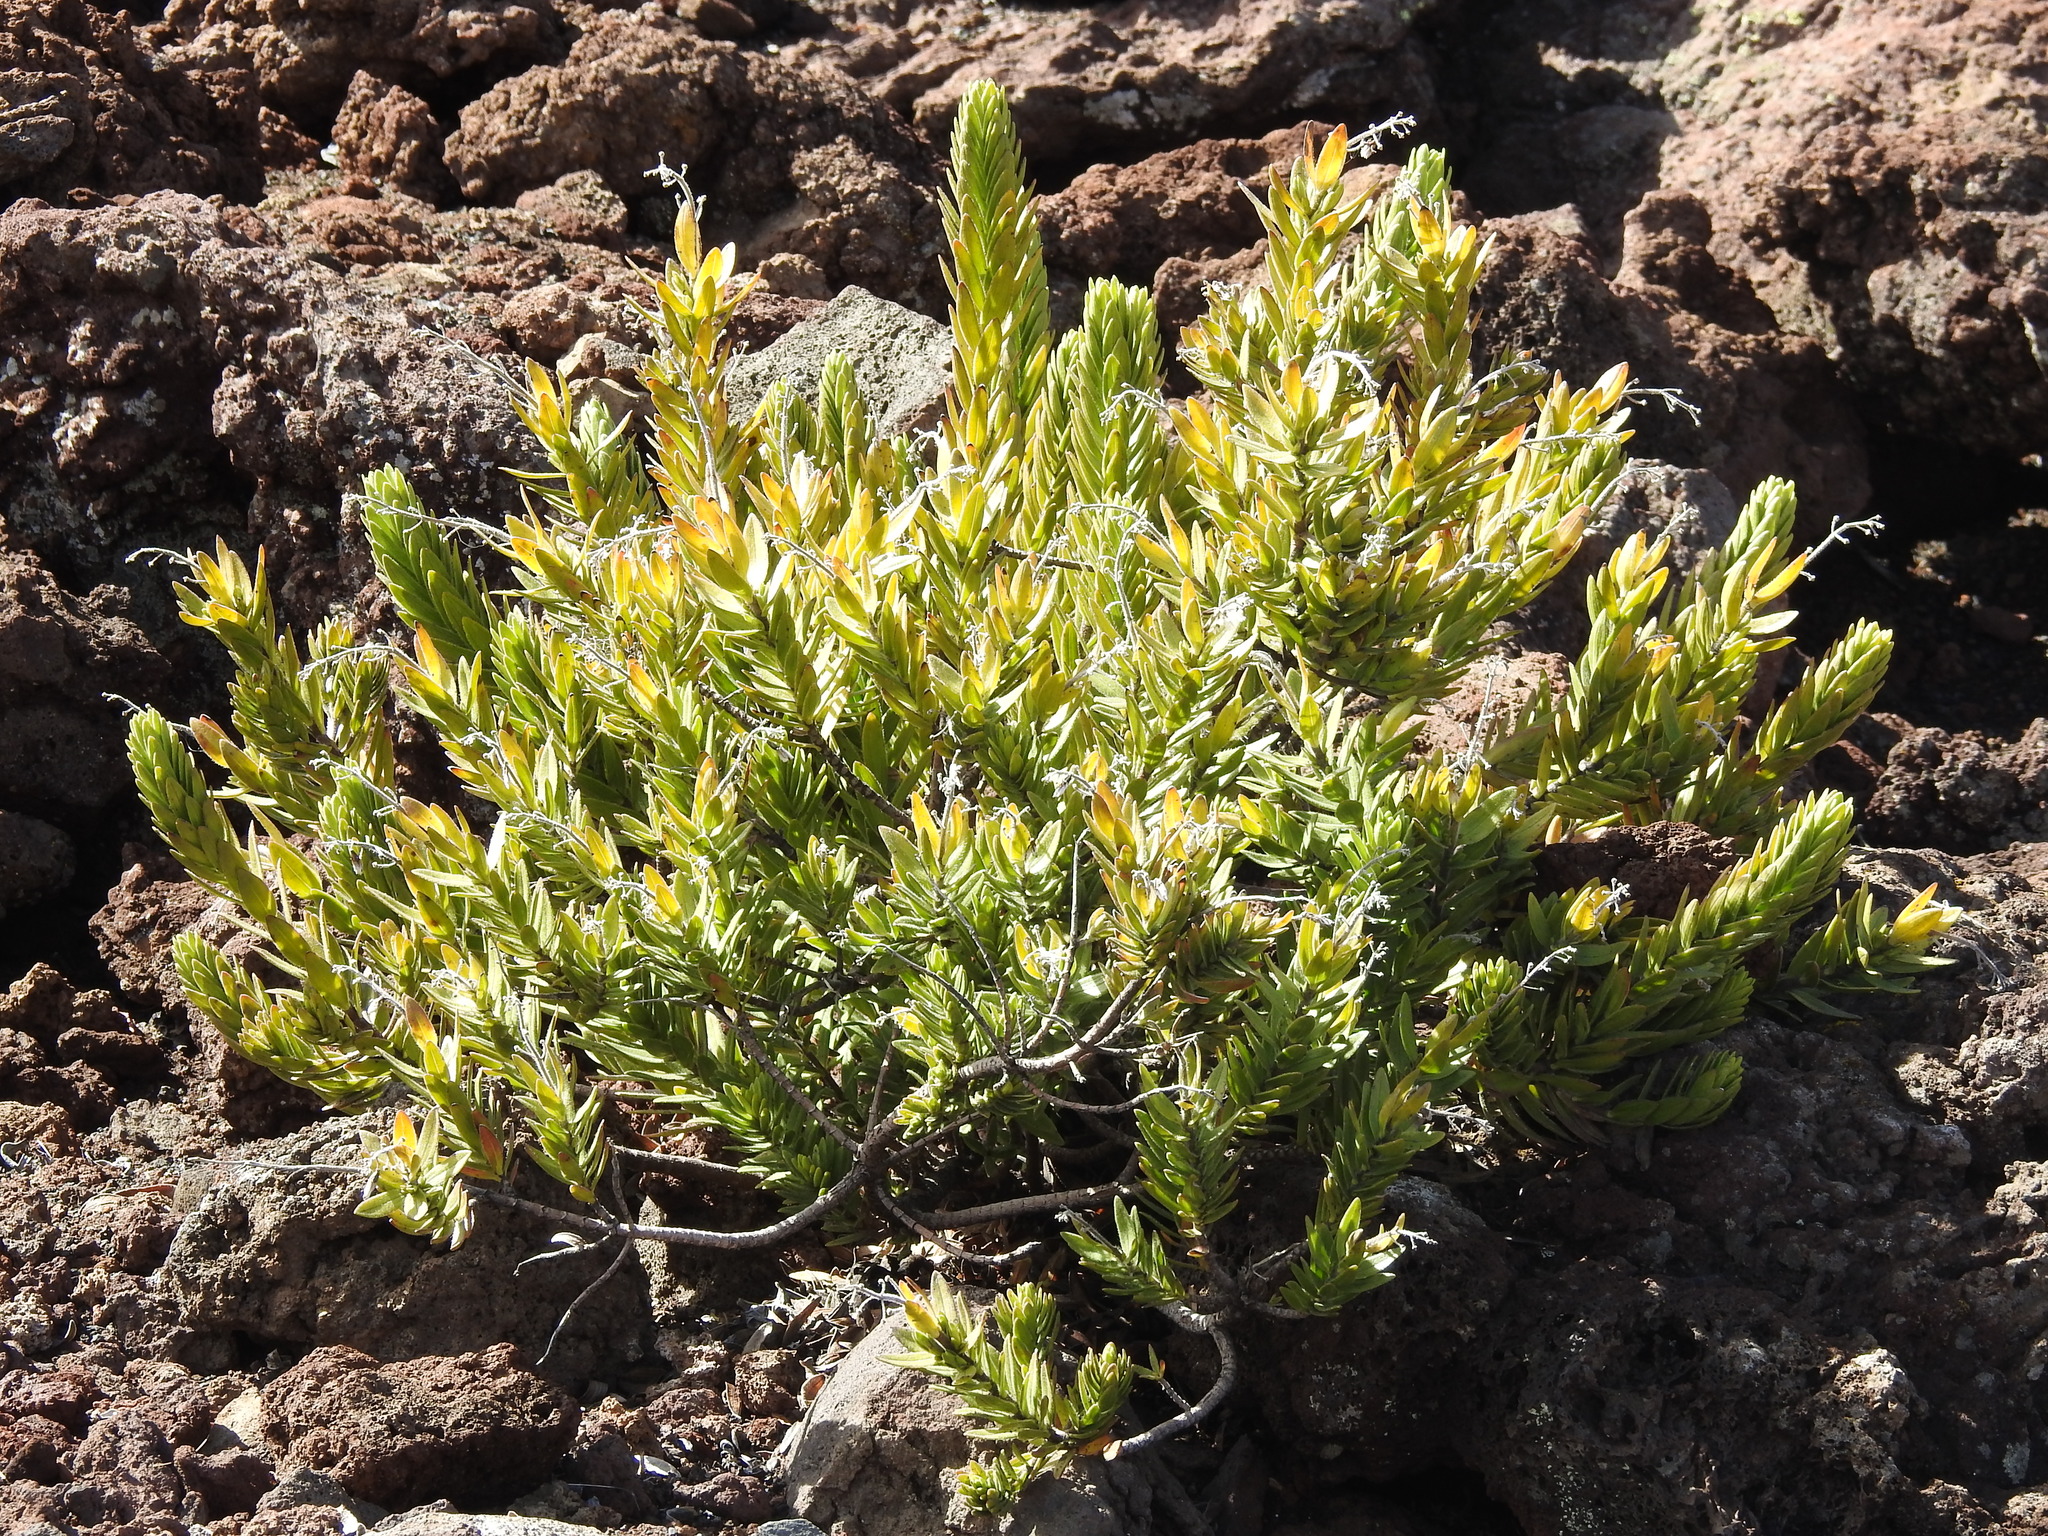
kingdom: Plantae
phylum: Tracheophyta
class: Magnoliopsida
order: Asterales
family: Asteraceae
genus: Dubautia
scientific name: Dubautia menziesii
